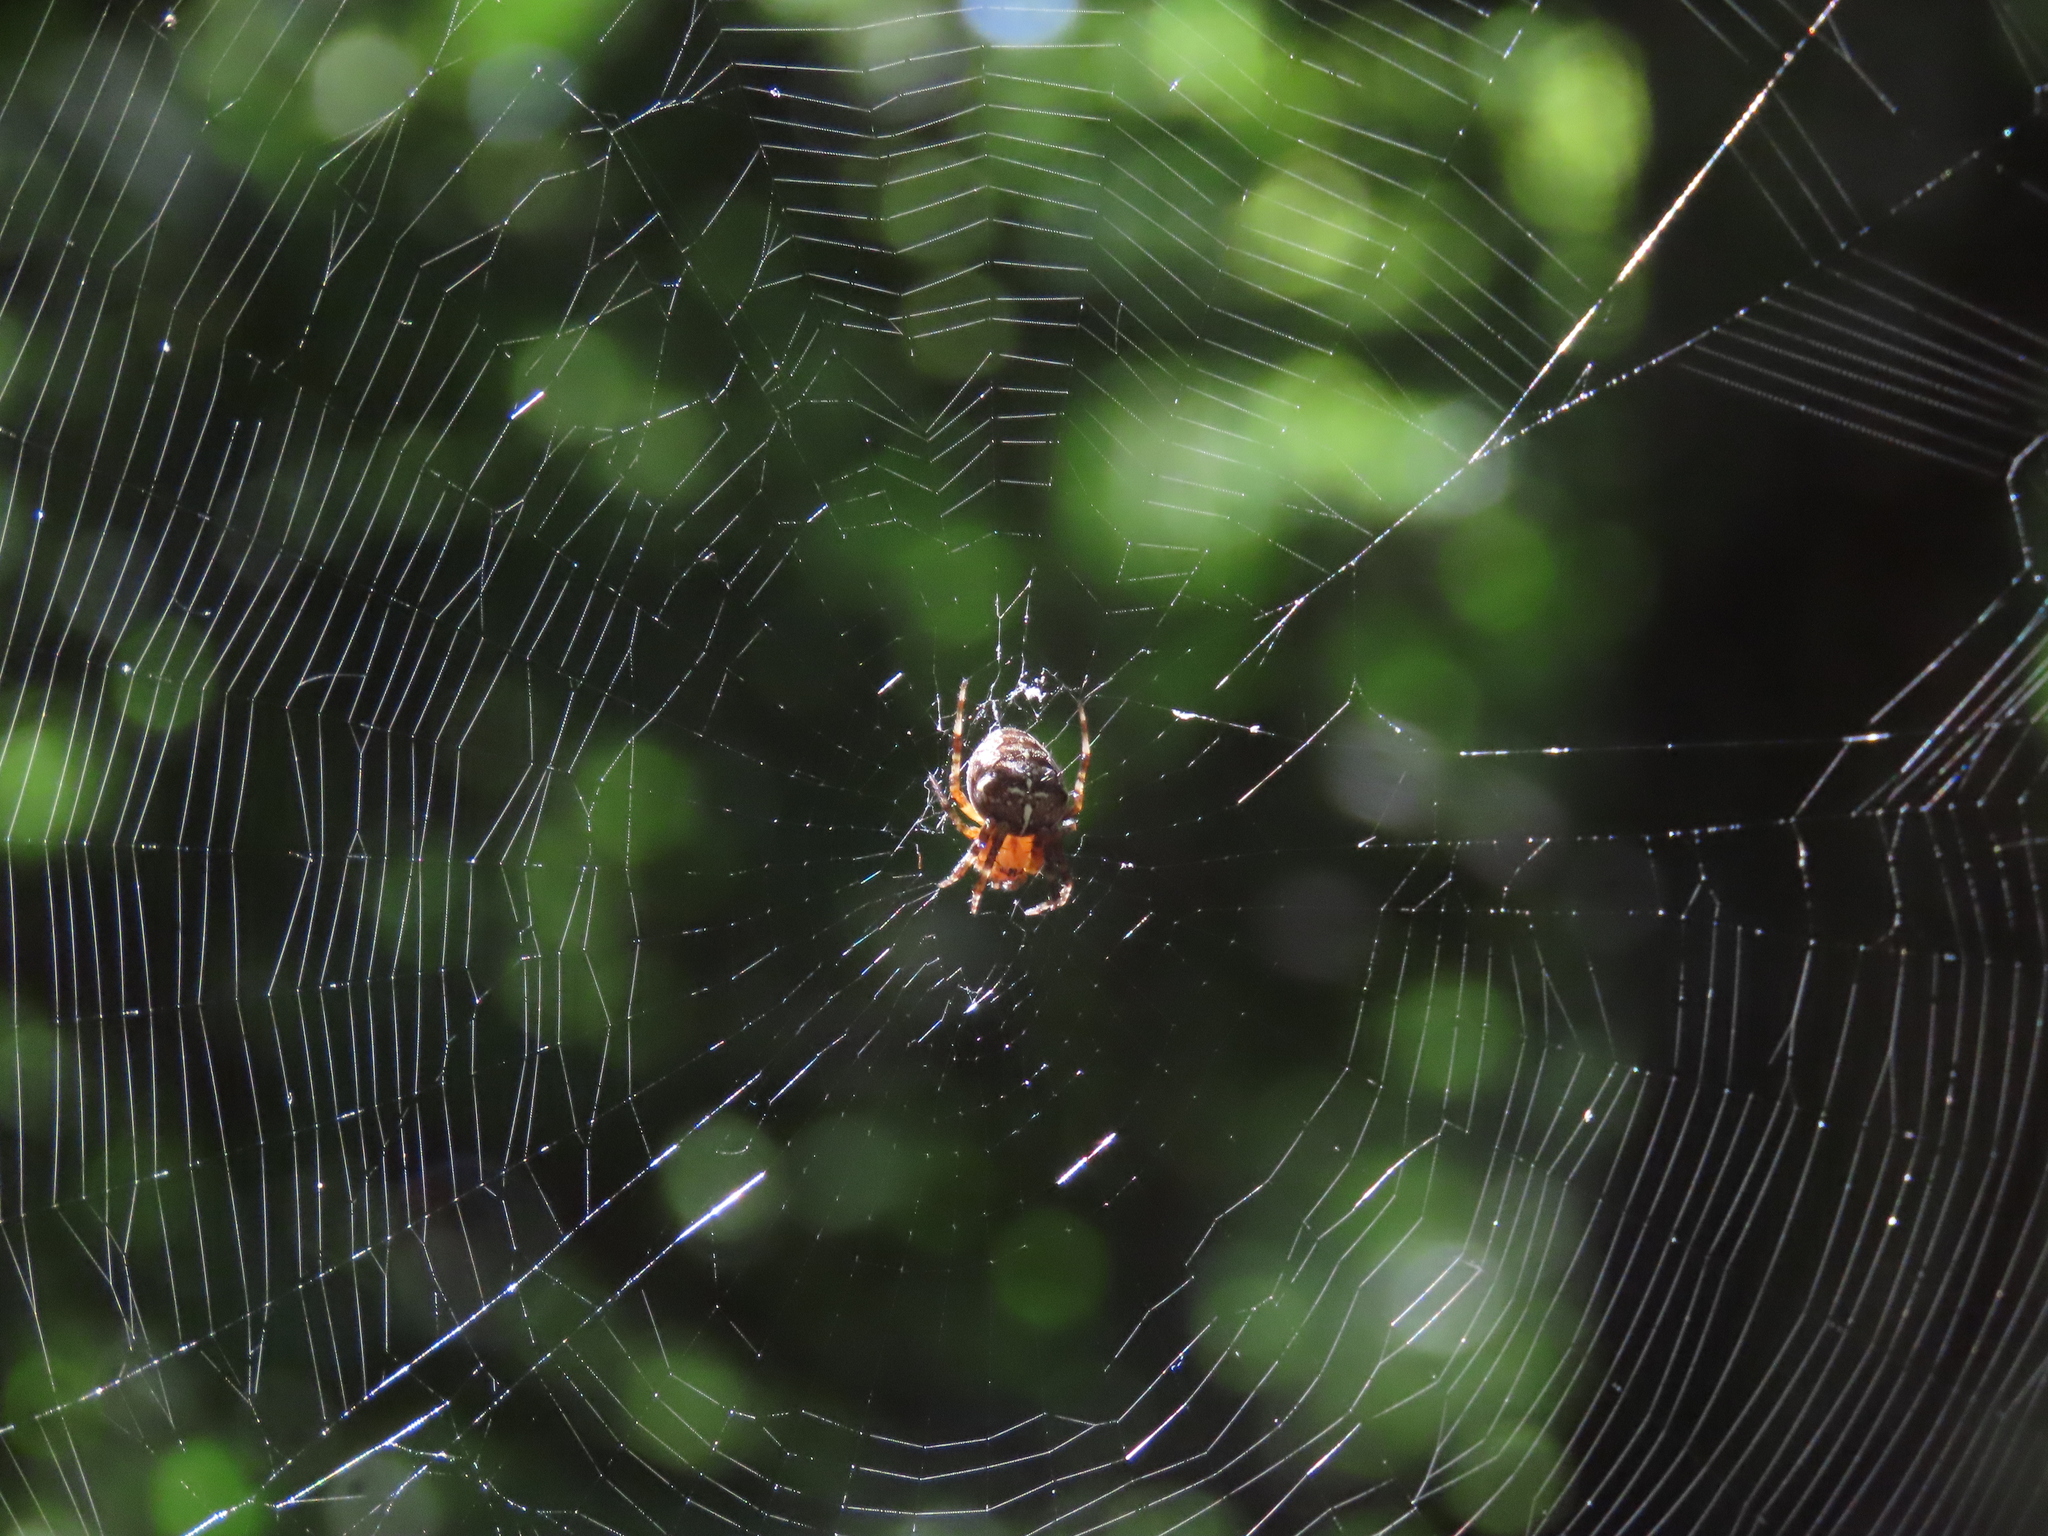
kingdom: Animalia
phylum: Arthropoda
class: Arachnida
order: Araneae
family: Araneidae
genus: Araneus
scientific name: Araneus diadematus
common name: Cross orbweaver
